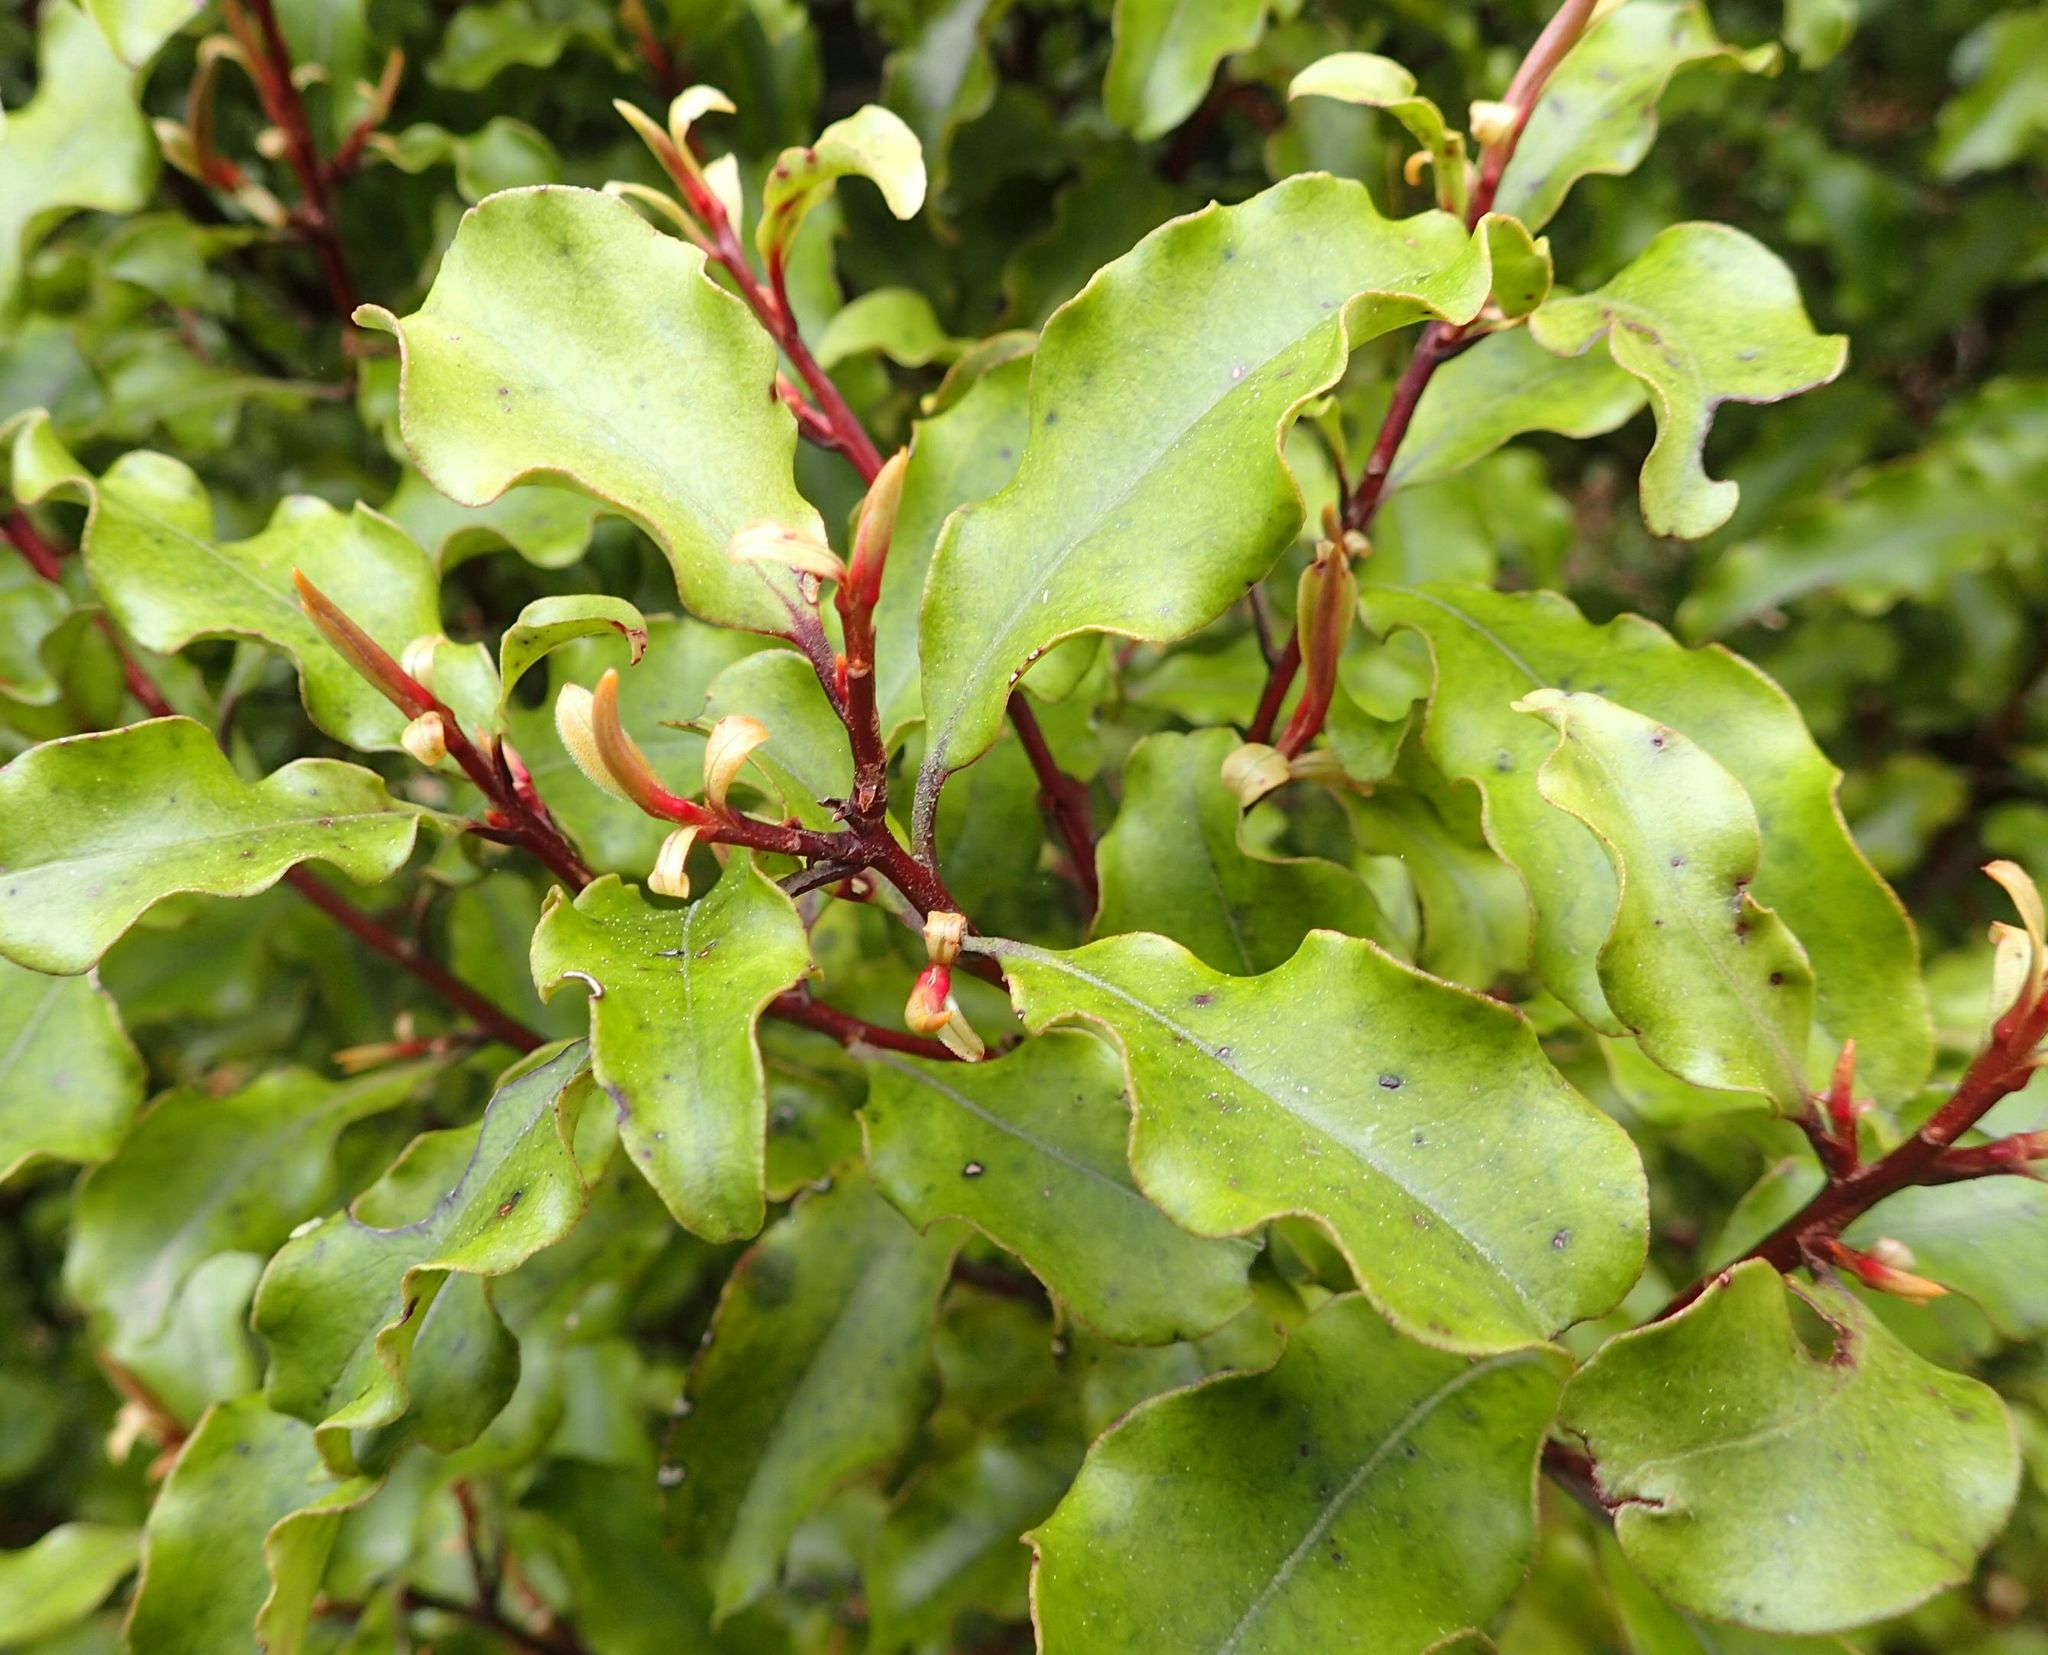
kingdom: Plantae
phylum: Tracheophyta
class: Magnoliopsida
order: Ericales
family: Primulaceae
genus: Myrsine
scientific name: Myrsine australis
